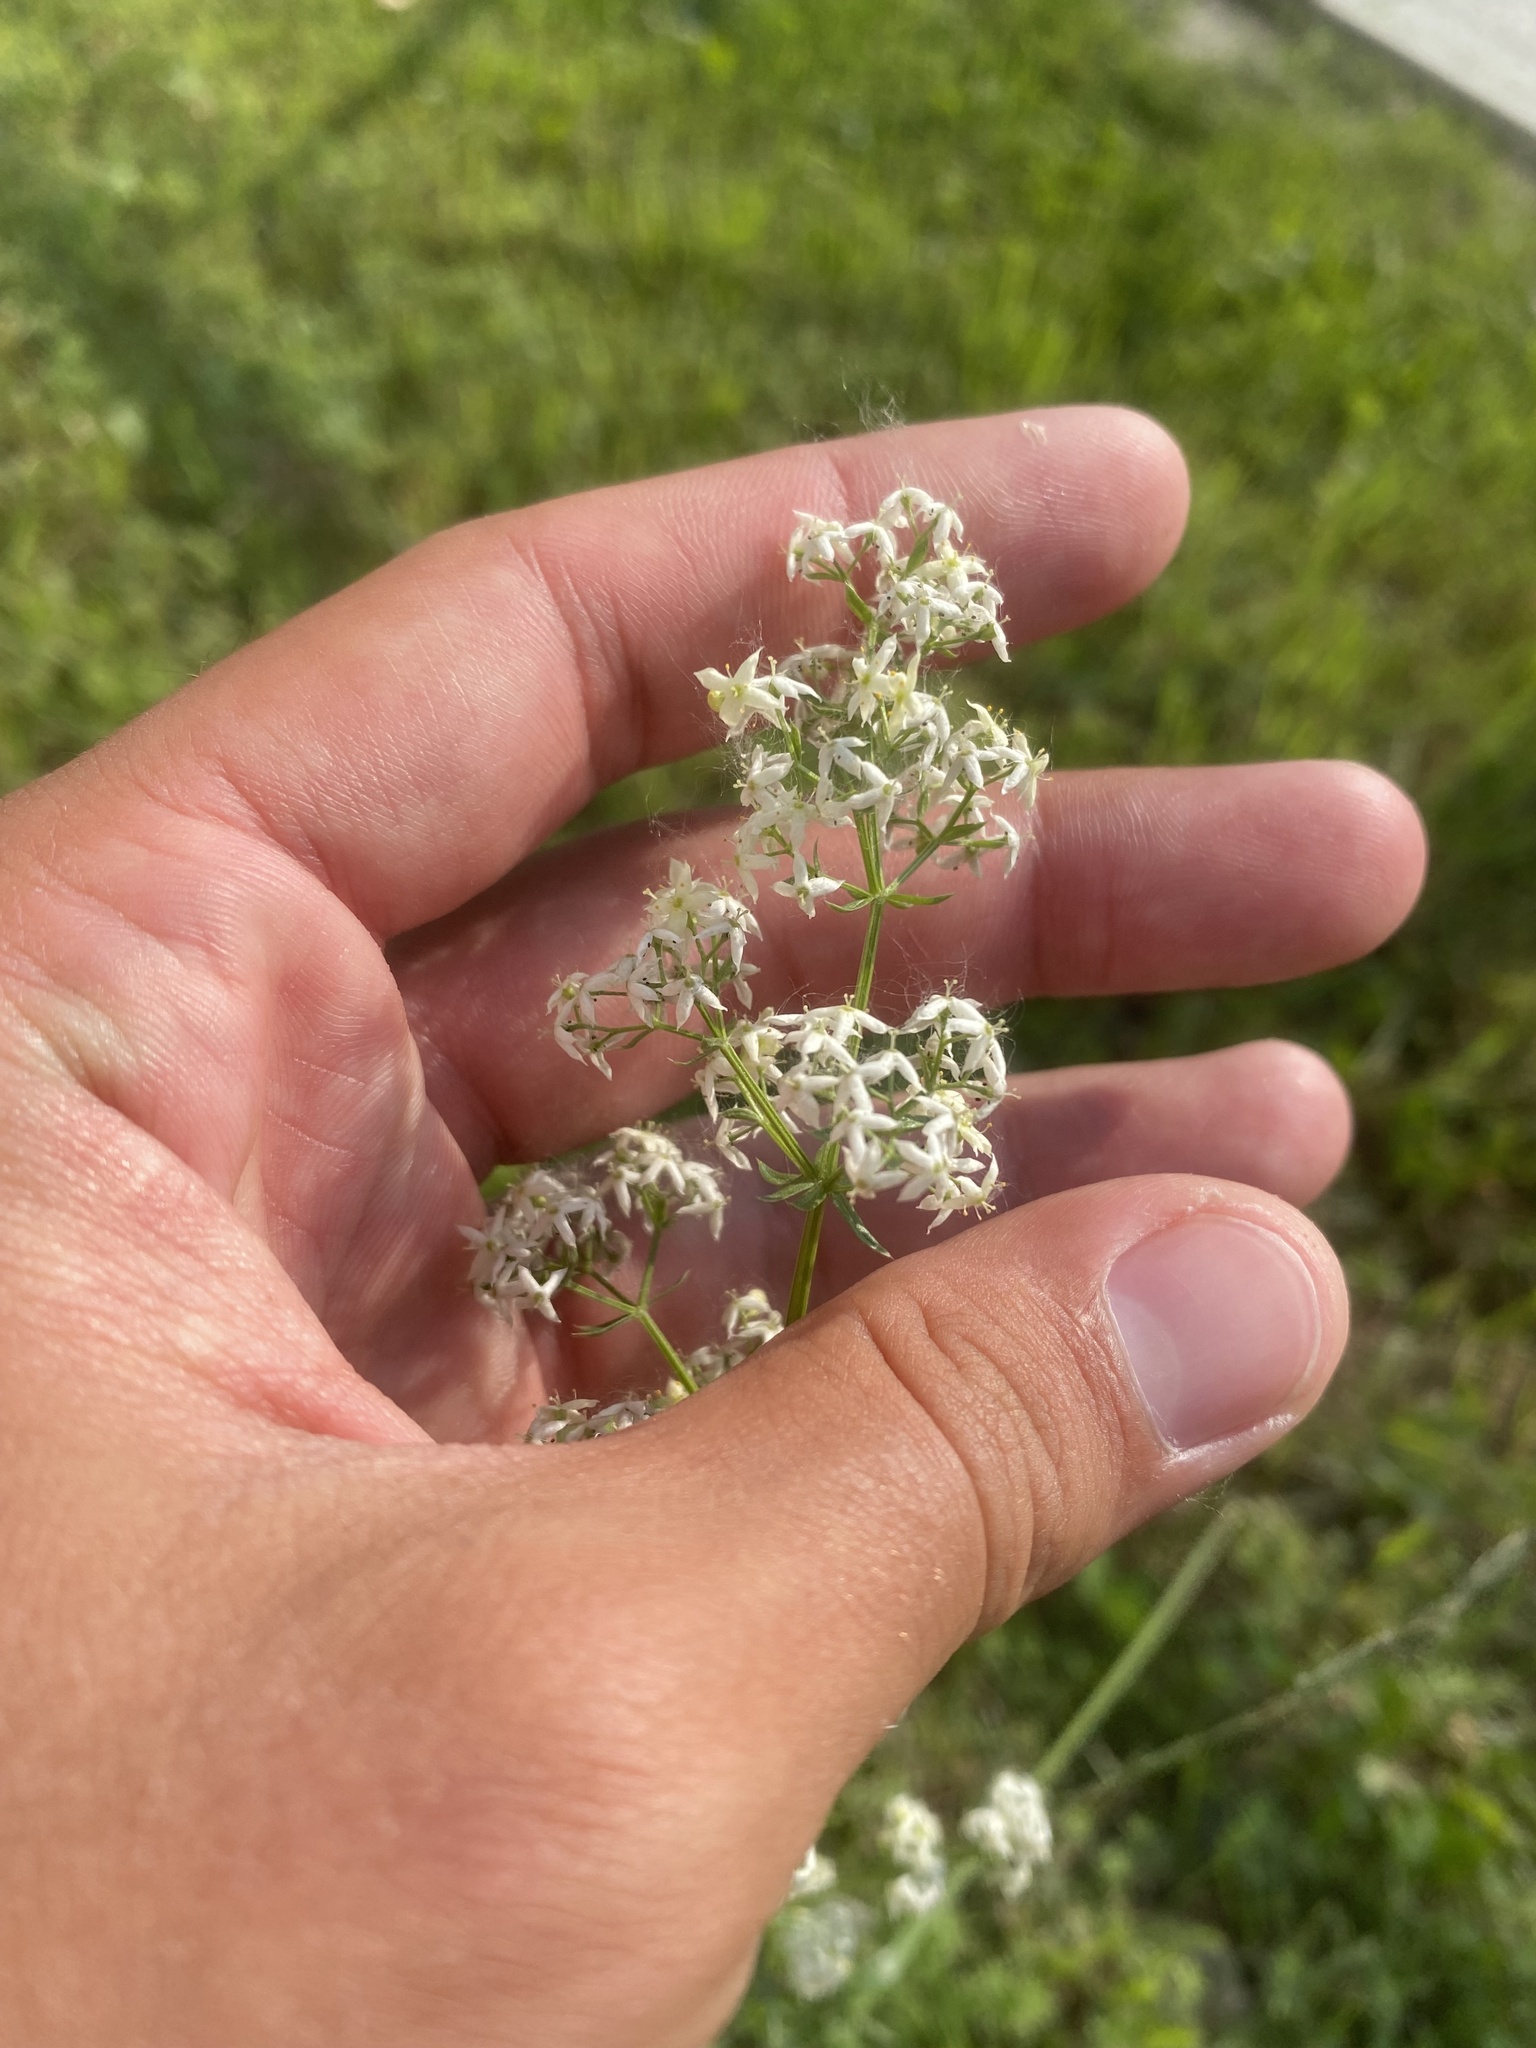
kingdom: Plantae
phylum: Tracheophyta
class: Magnoliopsida
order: Gentianales
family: Rubiaceae
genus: Galium
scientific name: Galium mollugo
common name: Hedge bedstraw
